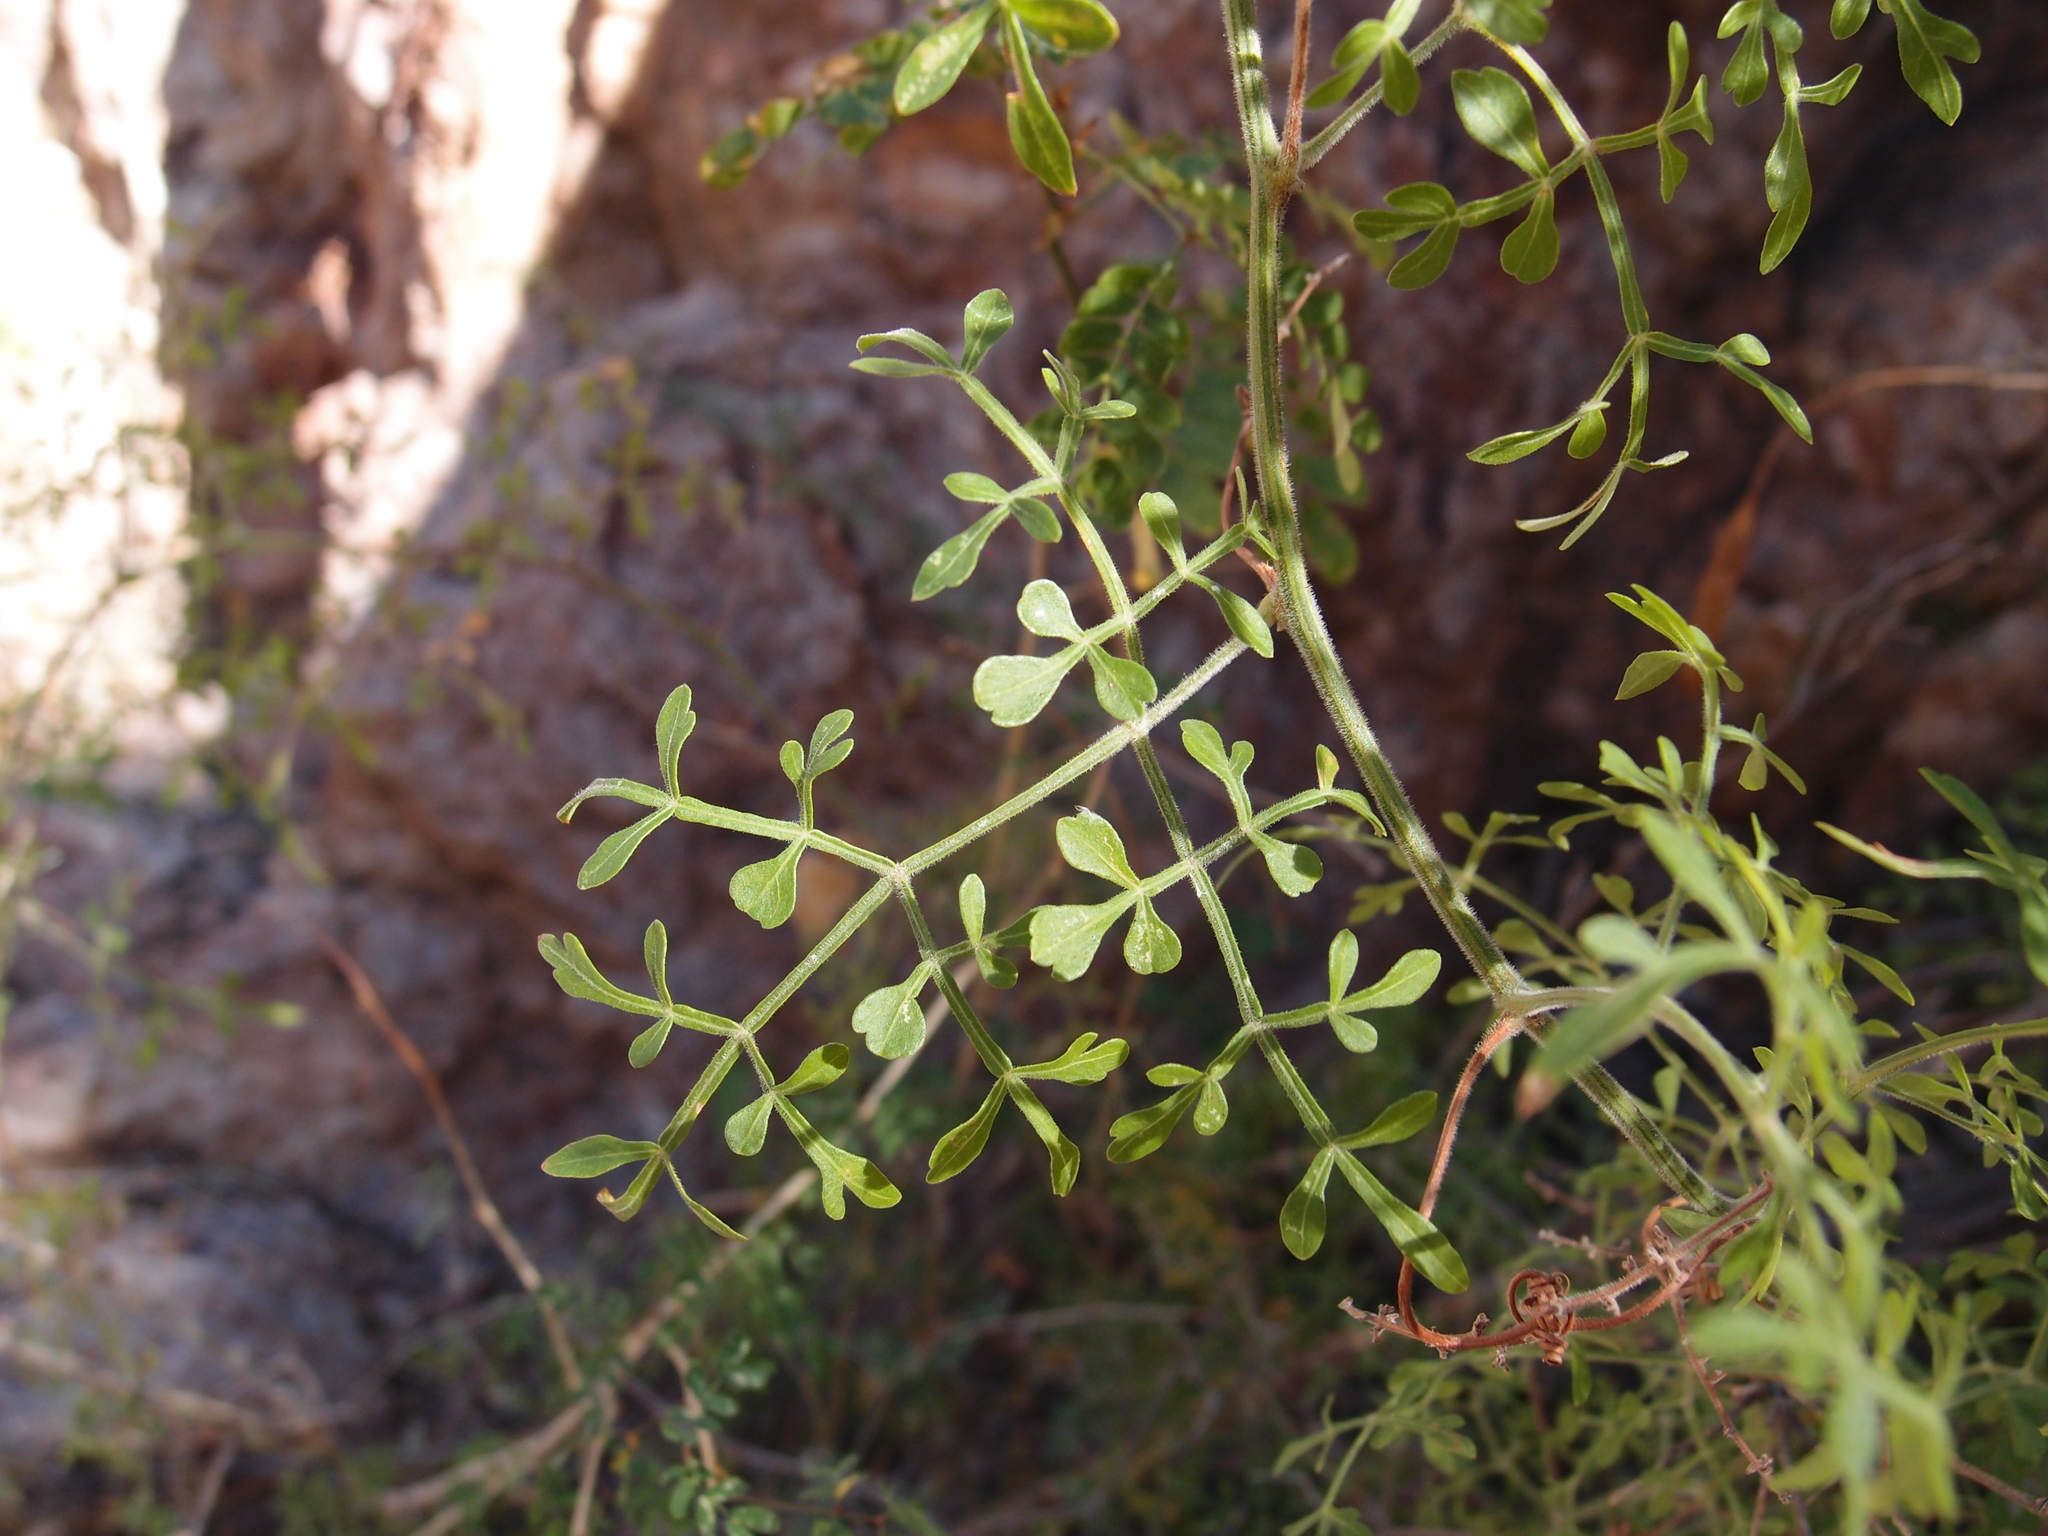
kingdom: Plantae
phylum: Tracheophyta
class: Magnoliopsida
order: Sapindales
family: Sapindaceae
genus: Serjania
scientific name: Serjania palmeri
